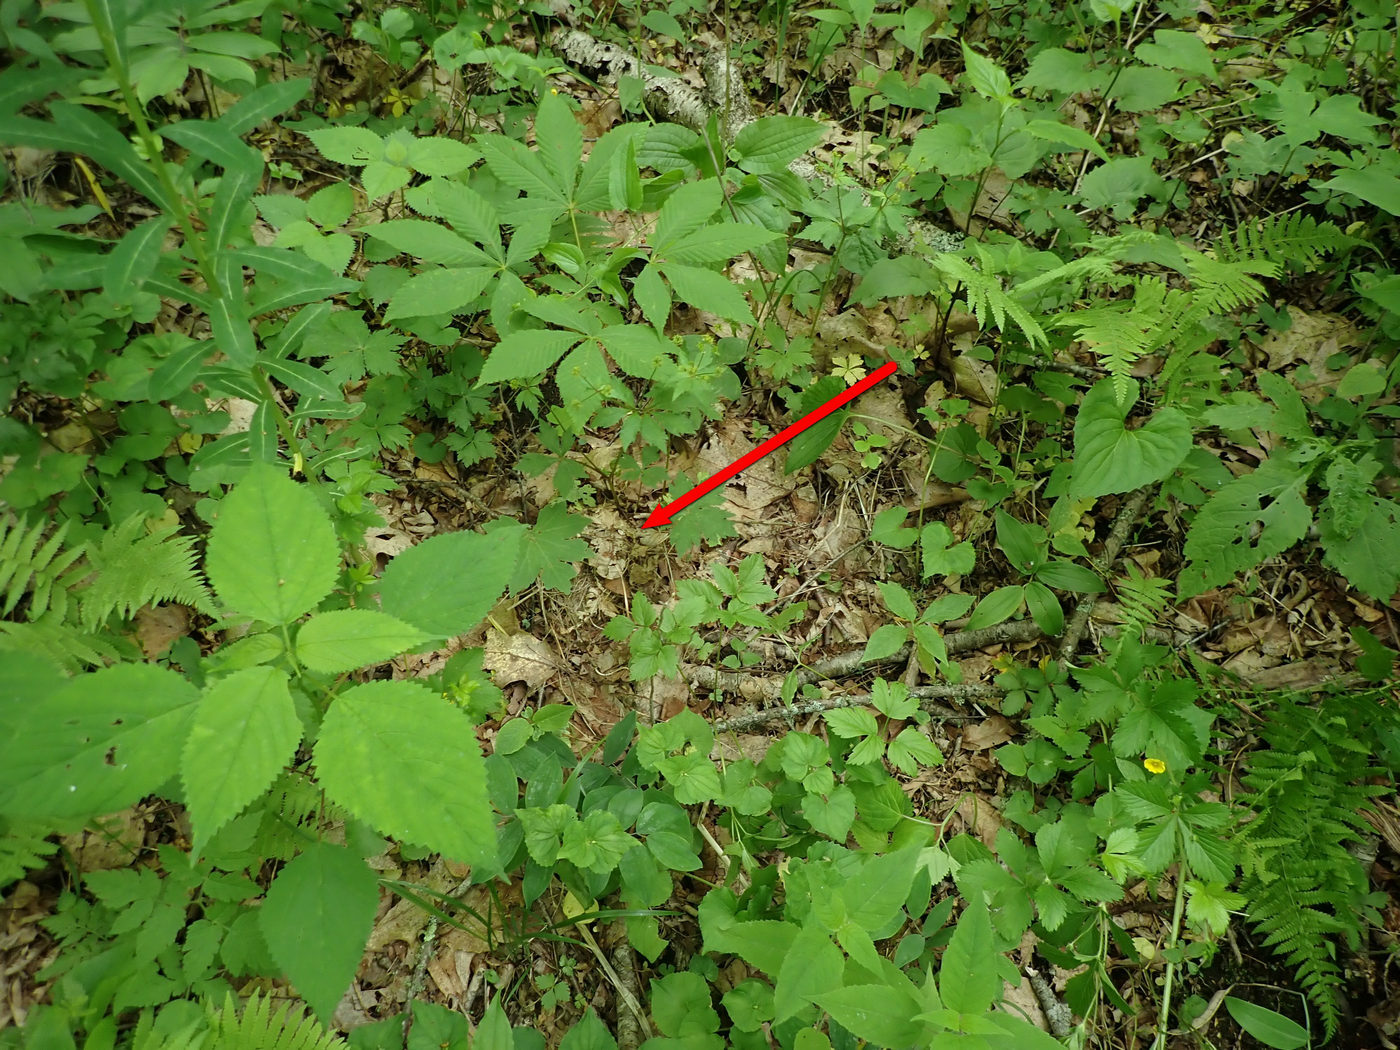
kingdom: Animalia
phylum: Chordata
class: Aves
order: Passeriformes
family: Parulidae
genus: Seiurus
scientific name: Seiurus aurocapilla
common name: Ovenbird
